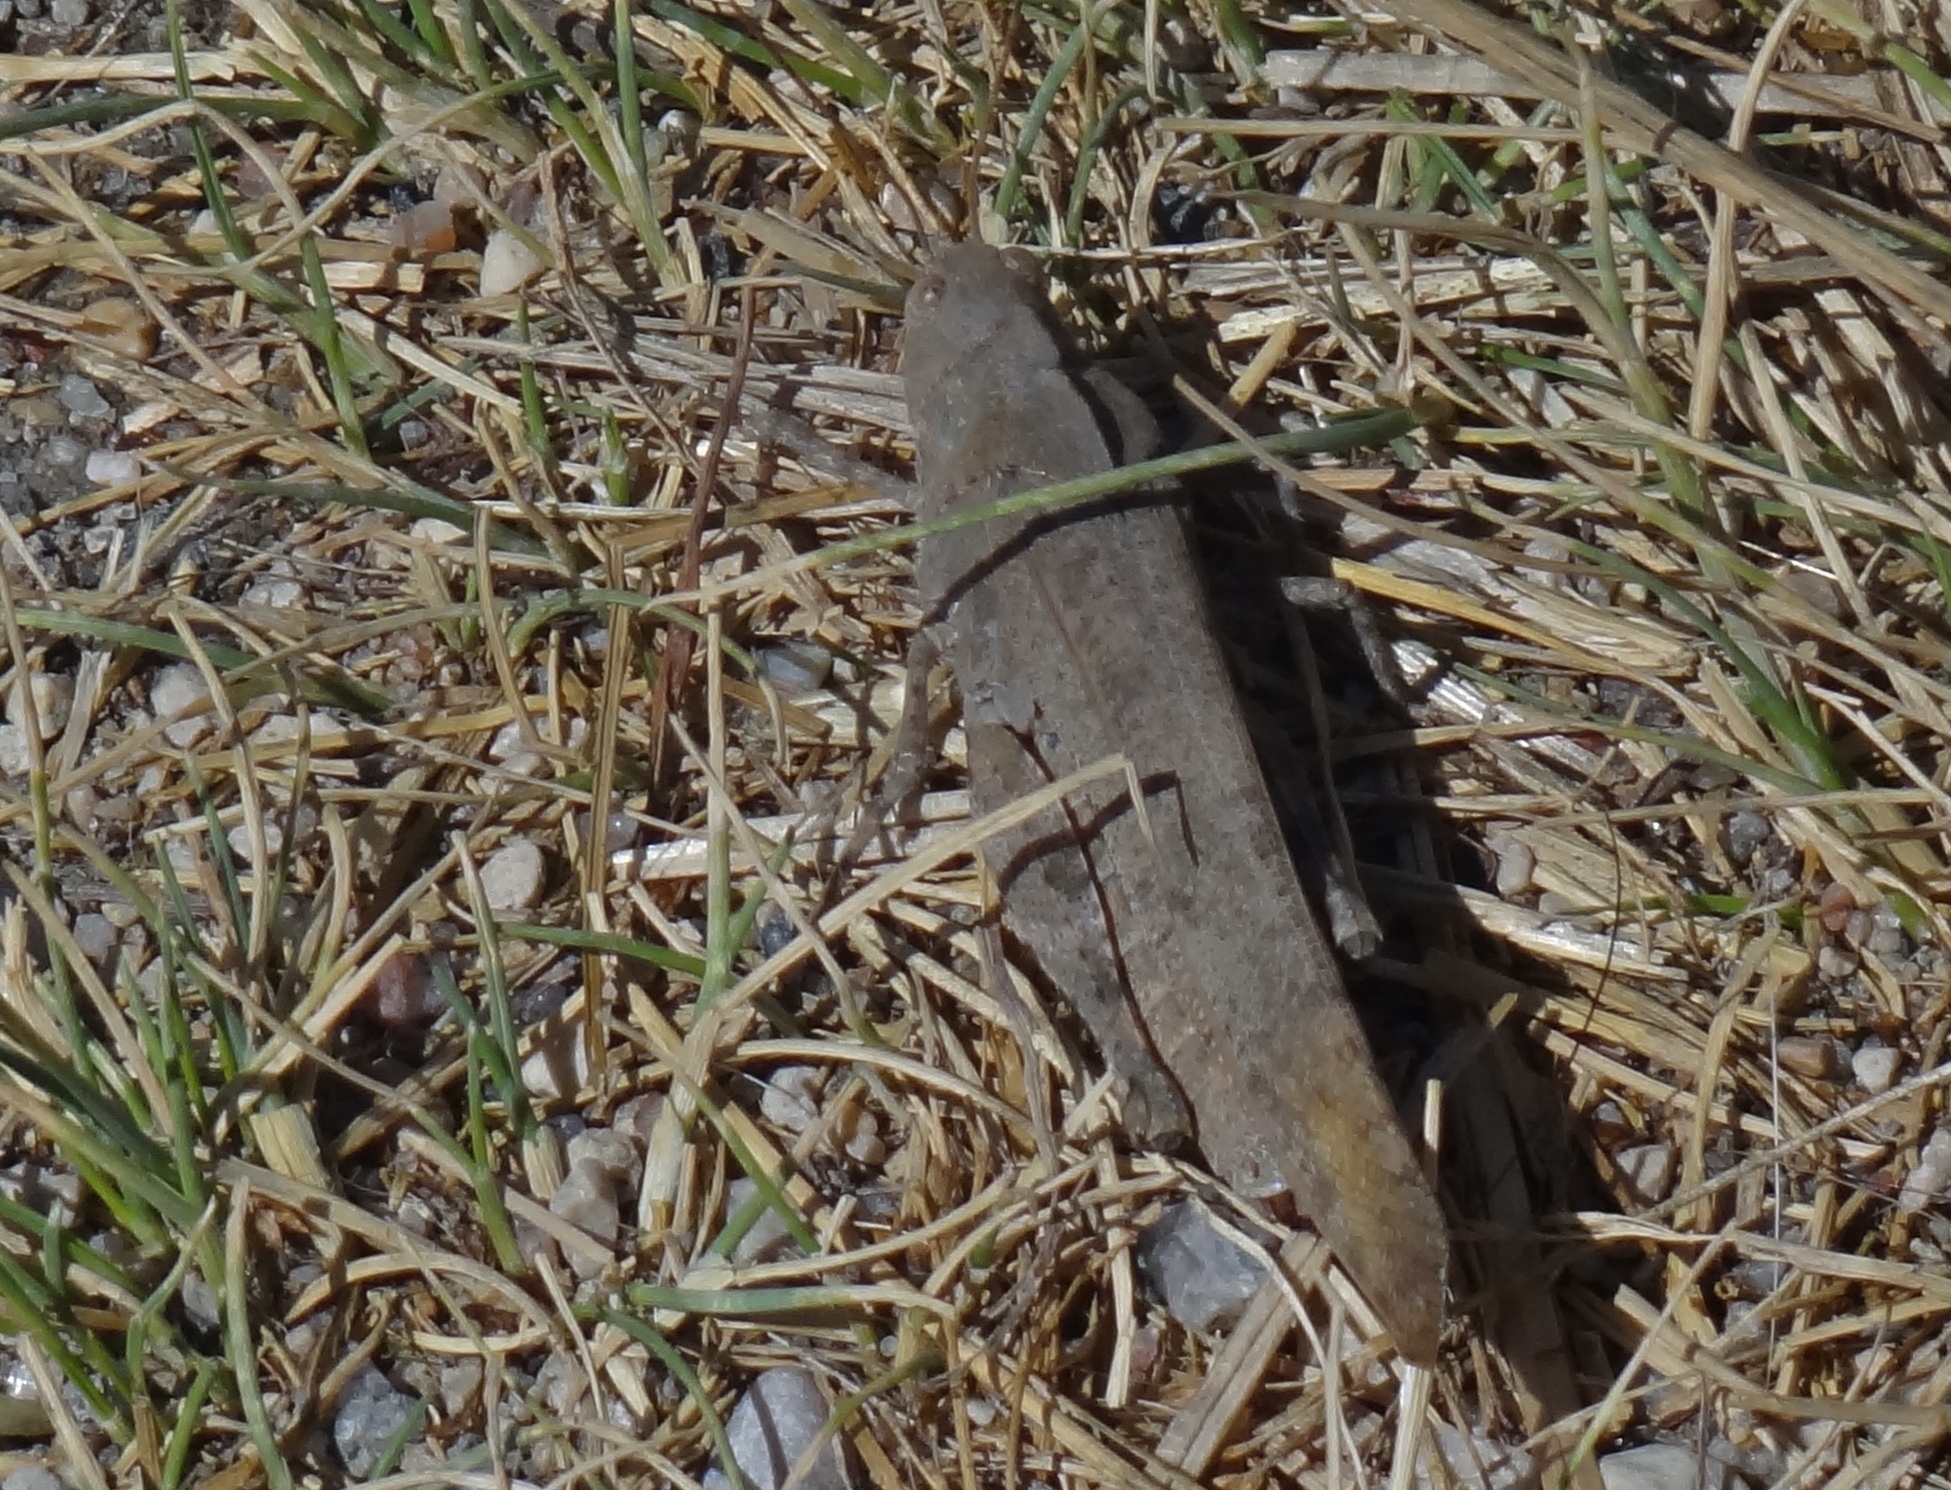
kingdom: Animalia
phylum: Arthropoda
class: Insecta
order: Orthoptera
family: Acrididae
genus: Dissosteira
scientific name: Dissosteira carolina
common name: Carolina grasshopper
